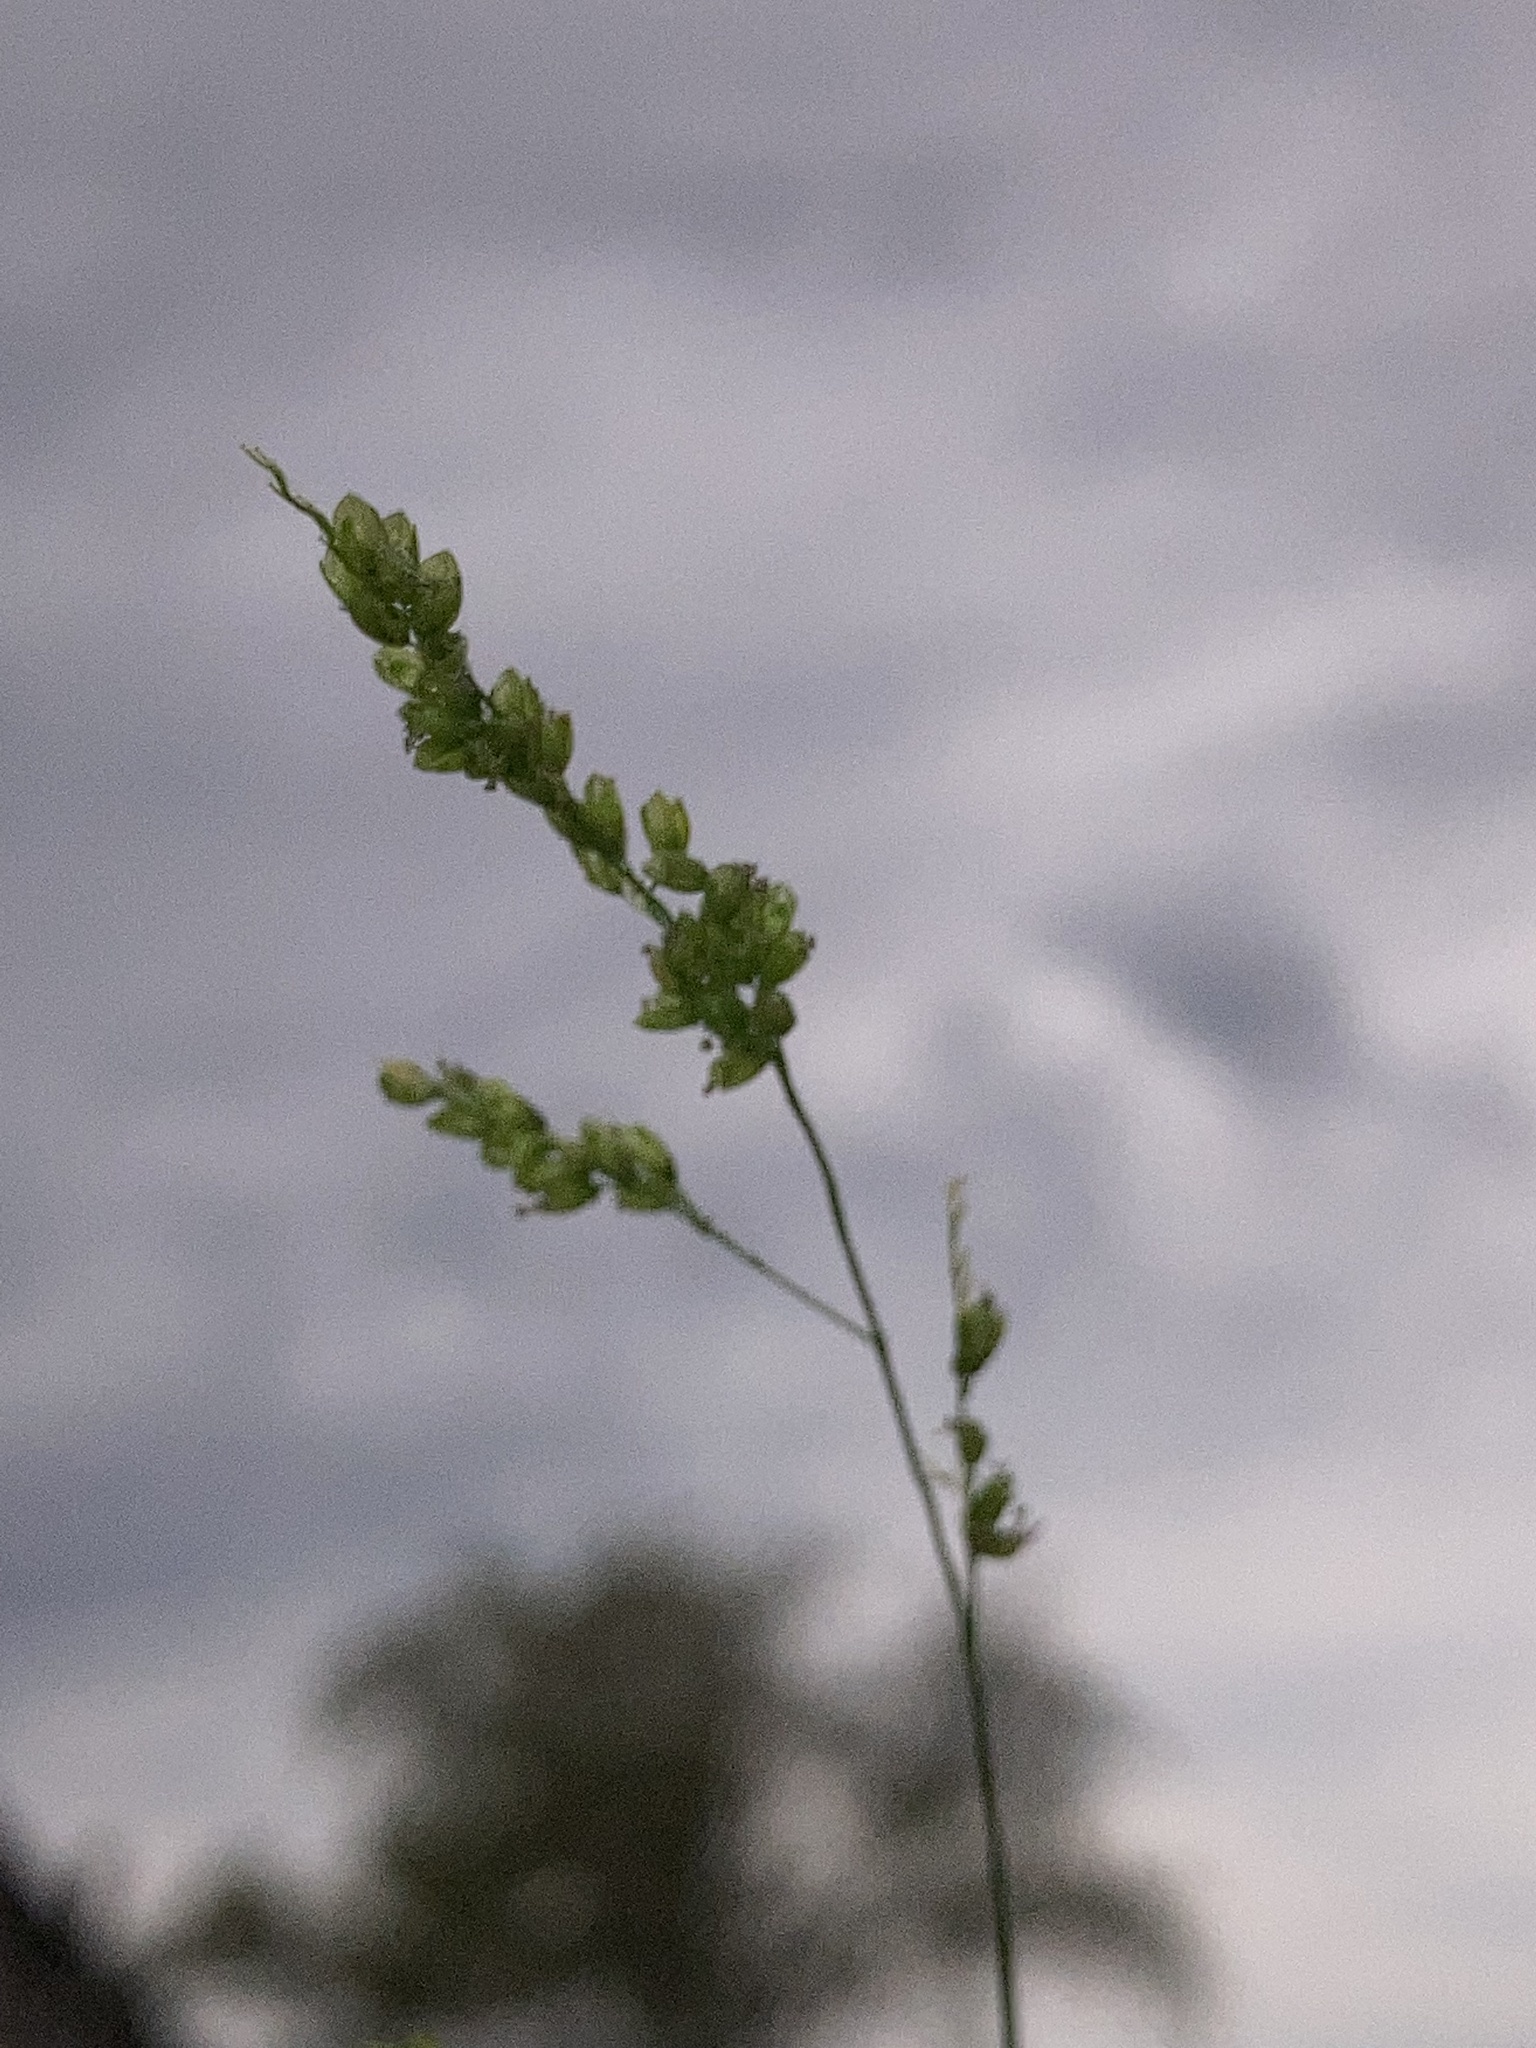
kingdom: Plantae
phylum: Tracheophyta
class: Liliopsida
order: Poales
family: Poaceae
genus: Steinchisma
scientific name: Steinchisma hians
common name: Gaping panic grass
